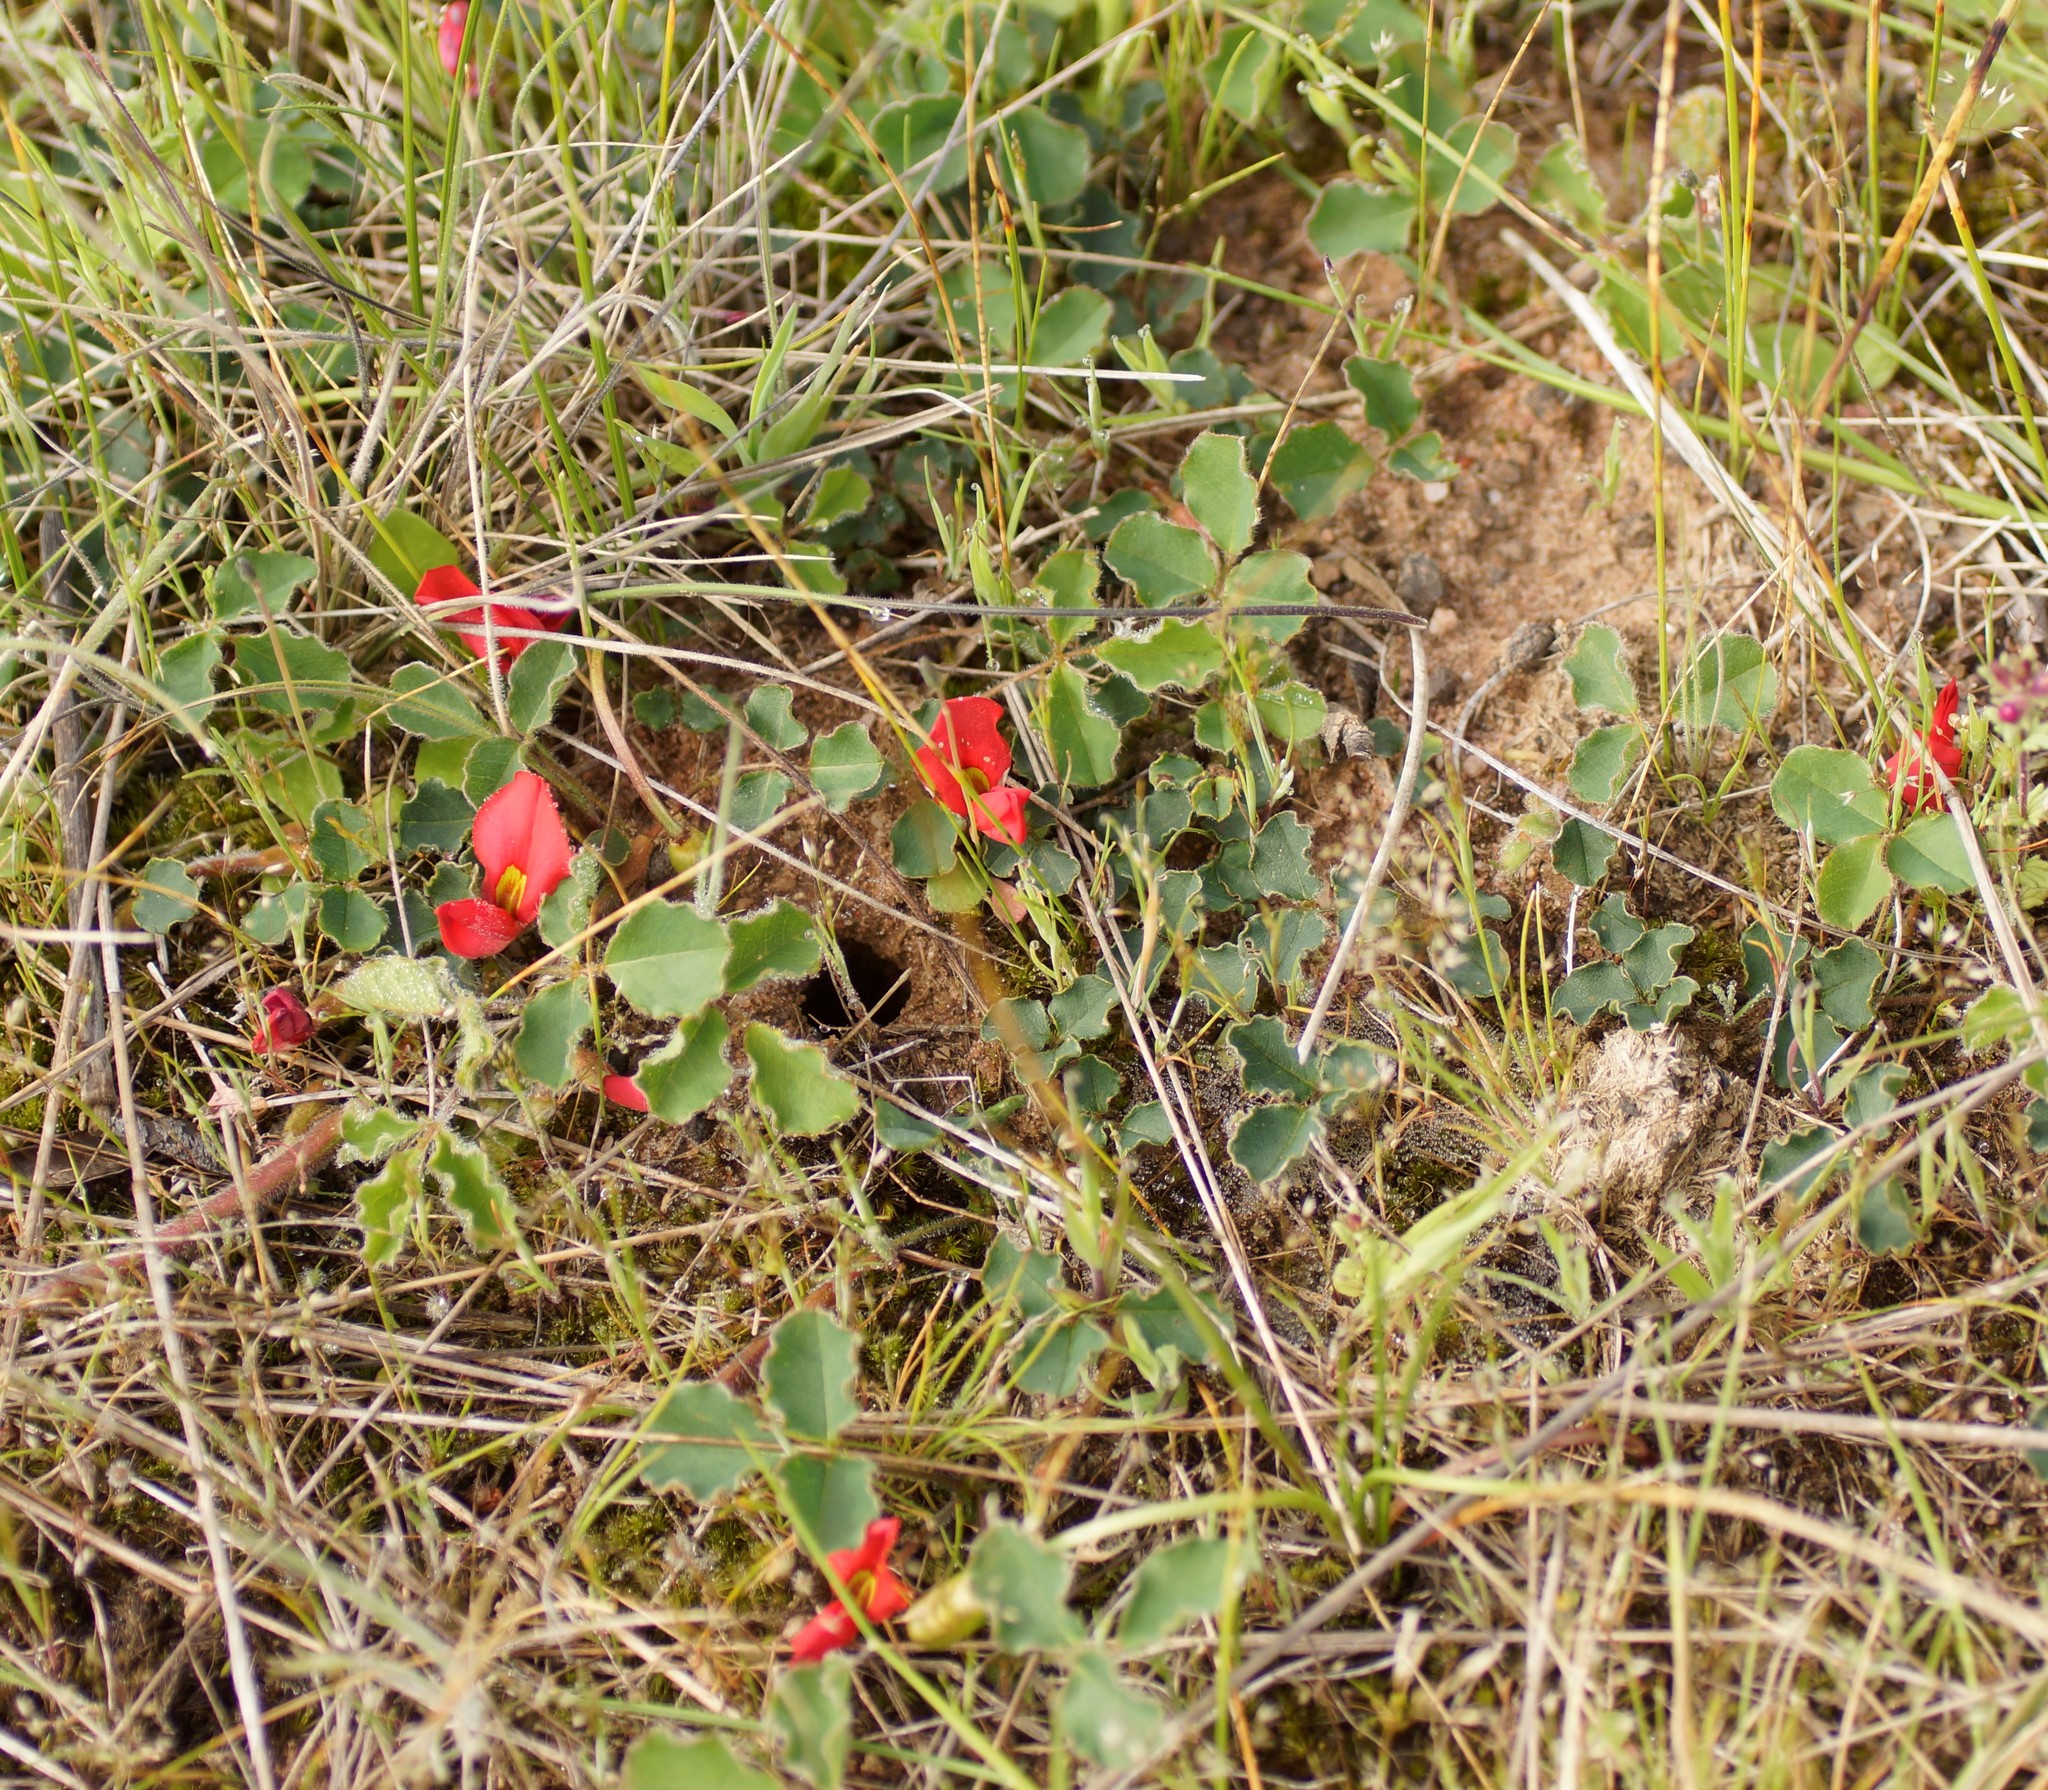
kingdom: Plantae
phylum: Tracheophyta
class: Magnoliopsida
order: Fabales
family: Fabaceae
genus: Kennedia
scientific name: Kennedia prostrata
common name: Running-postman
